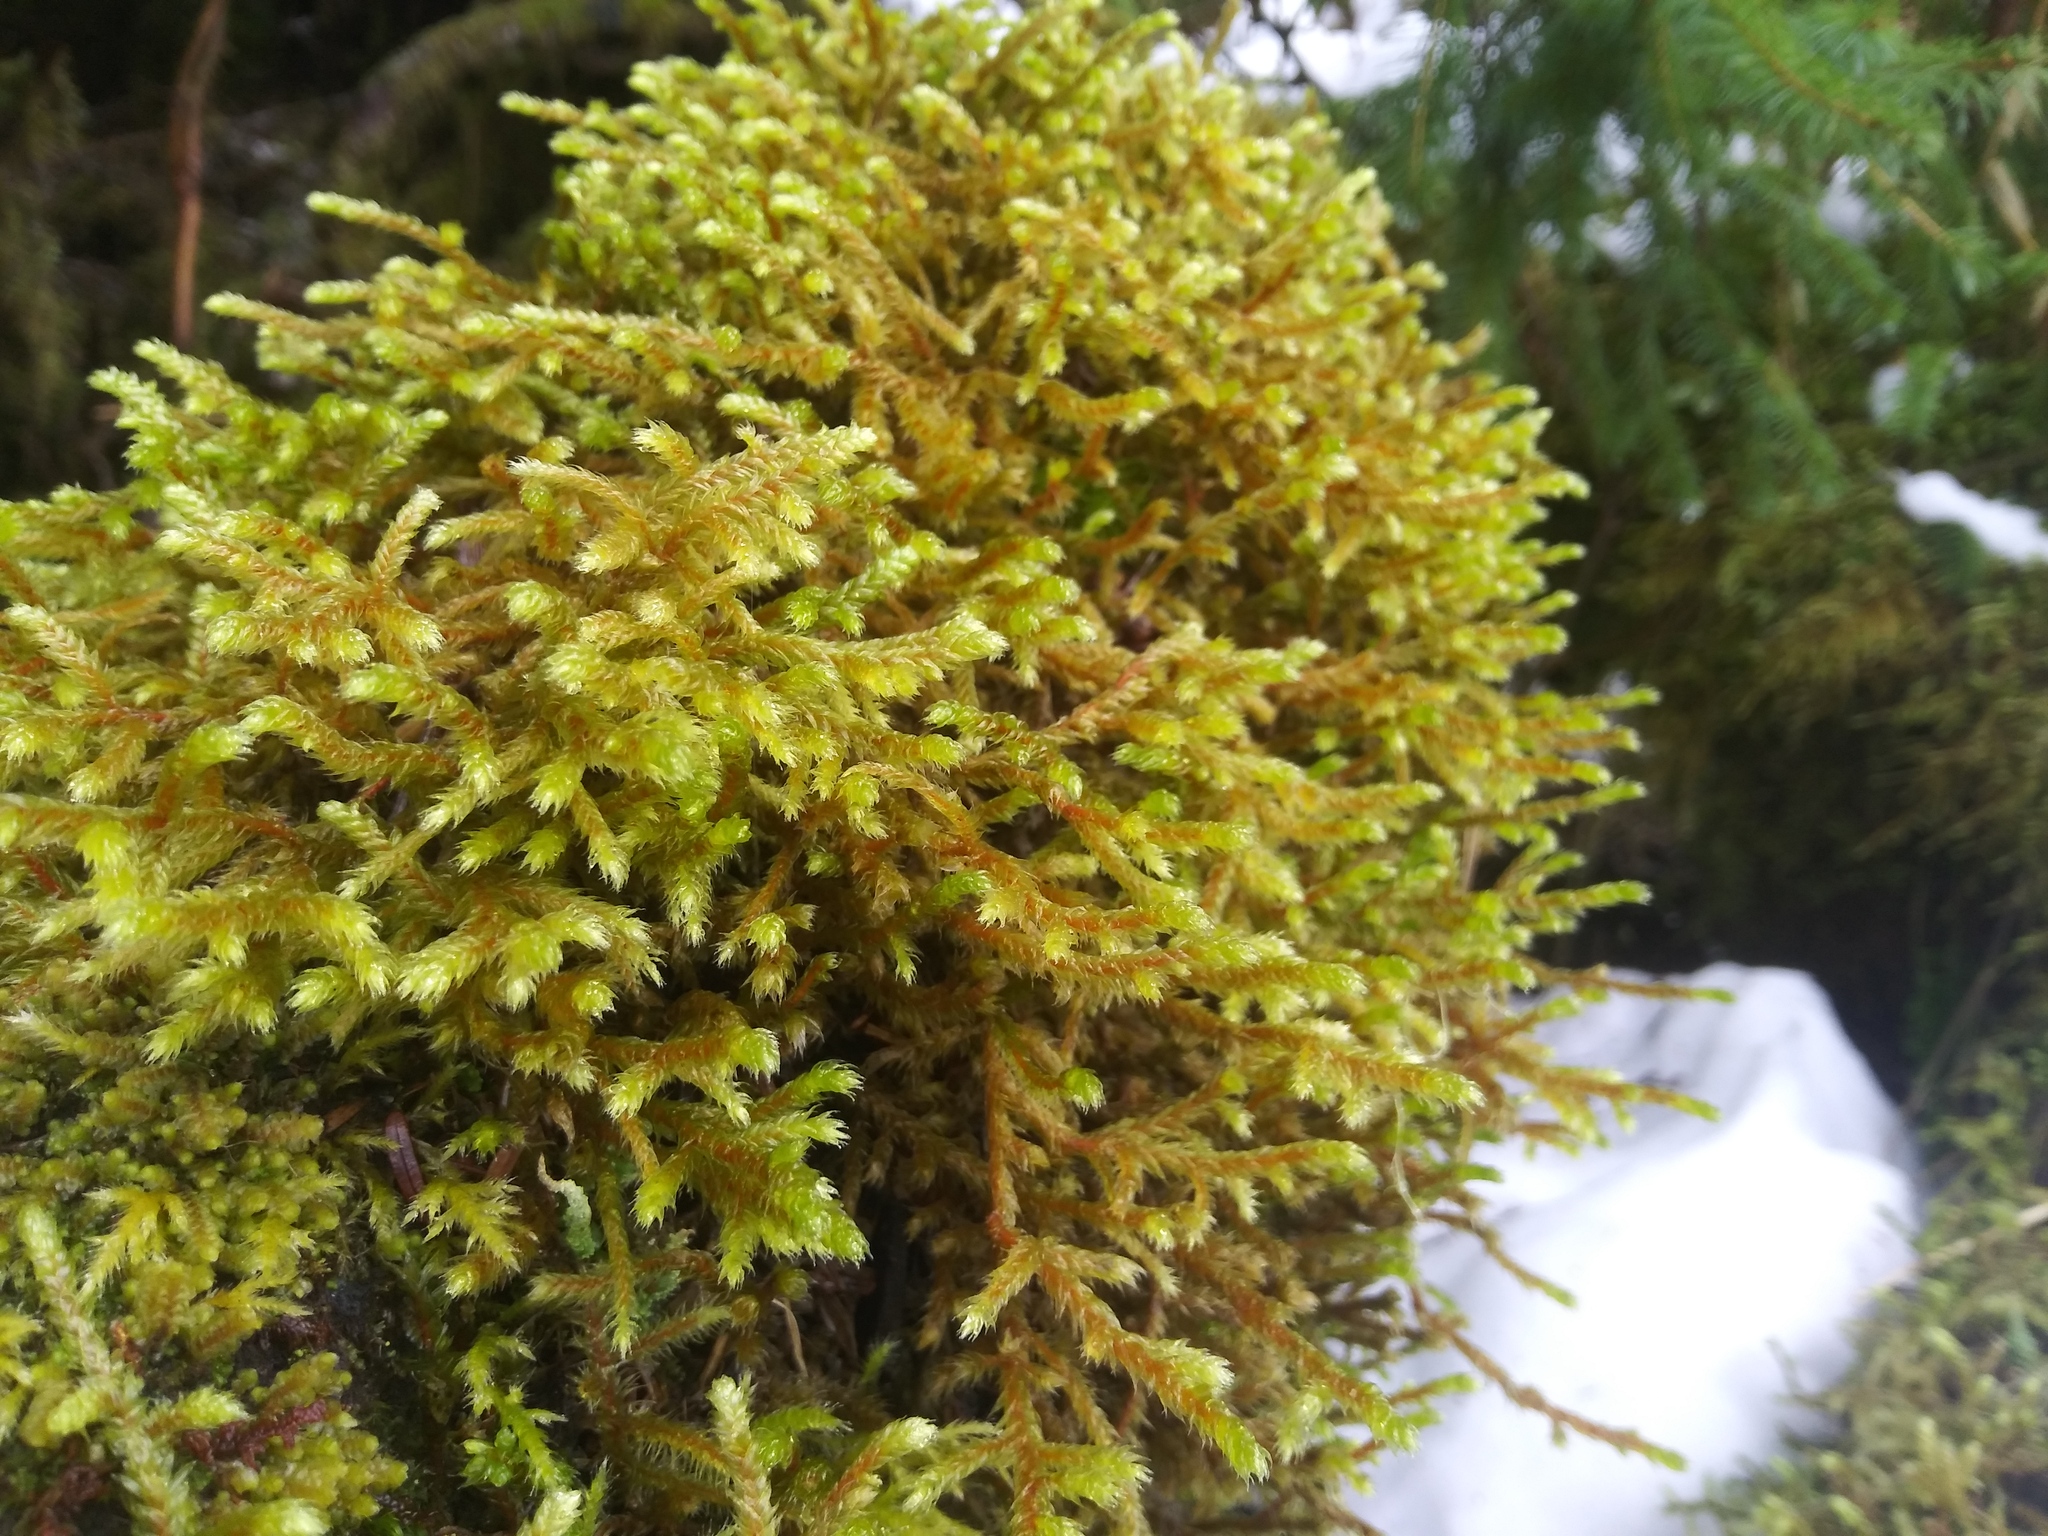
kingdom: Plantae
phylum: Bryophyta
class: Bryopsida
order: Hypnales
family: Antitrichiaceae
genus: Antitrichia
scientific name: Antitrichia curtipendula
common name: Pendulous wing-moss
